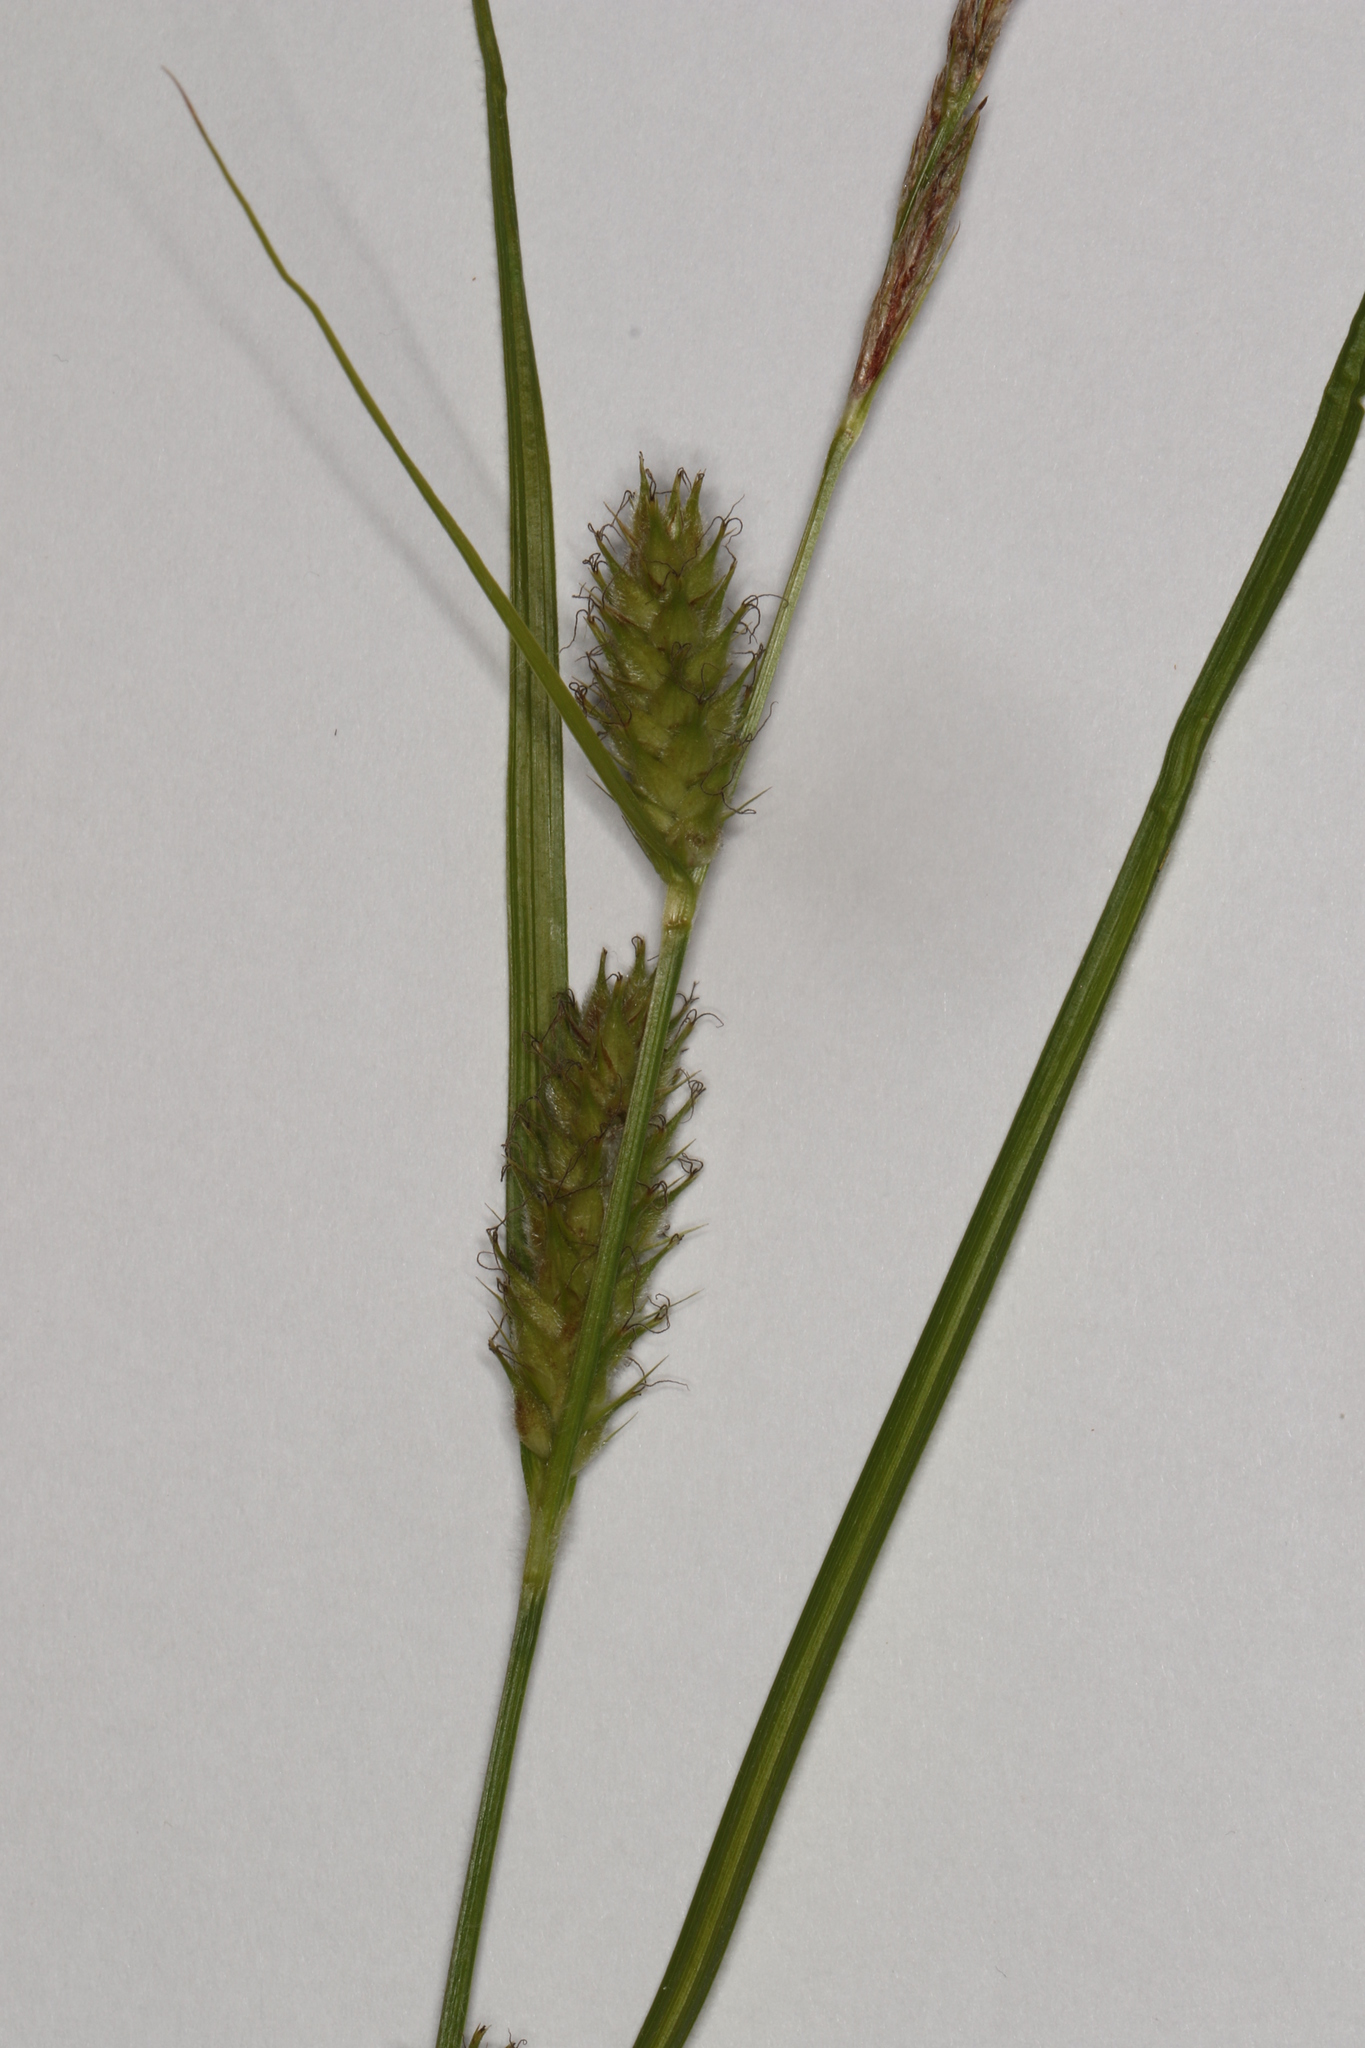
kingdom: Plantae
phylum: Tracheophyta
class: Liliopsida
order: Poales
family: Cyperaceae
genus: Carex
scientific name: Carex hirta
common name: Hairy sedge
